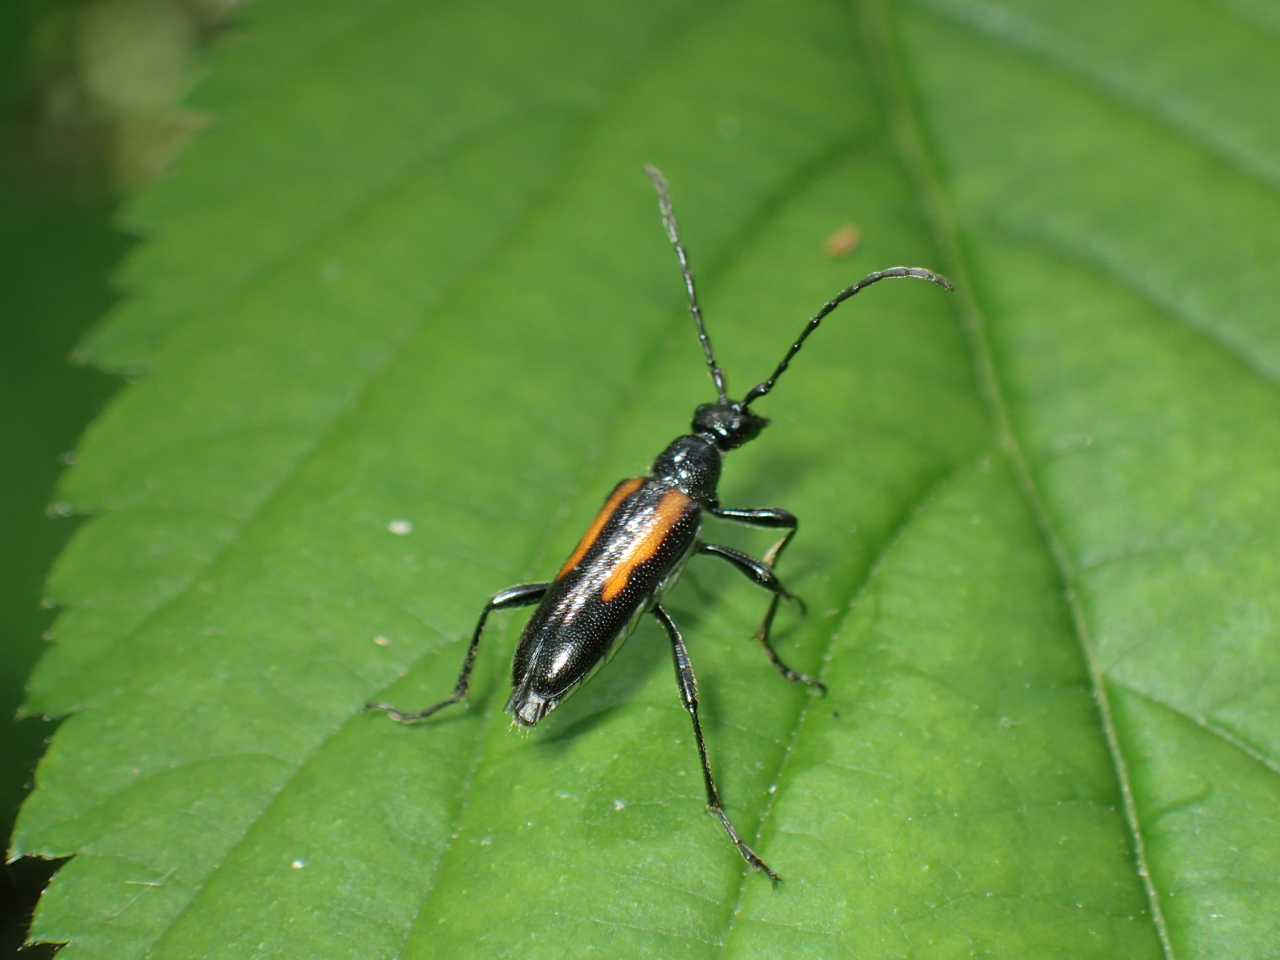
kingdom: Animalia
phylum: Arthropoda
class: Insecta
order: Coleoptera
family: Cerambycidae
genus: Strangalepta
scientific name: Strangalepta abbreviata
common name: Strangalepta flower longhorn beetle
